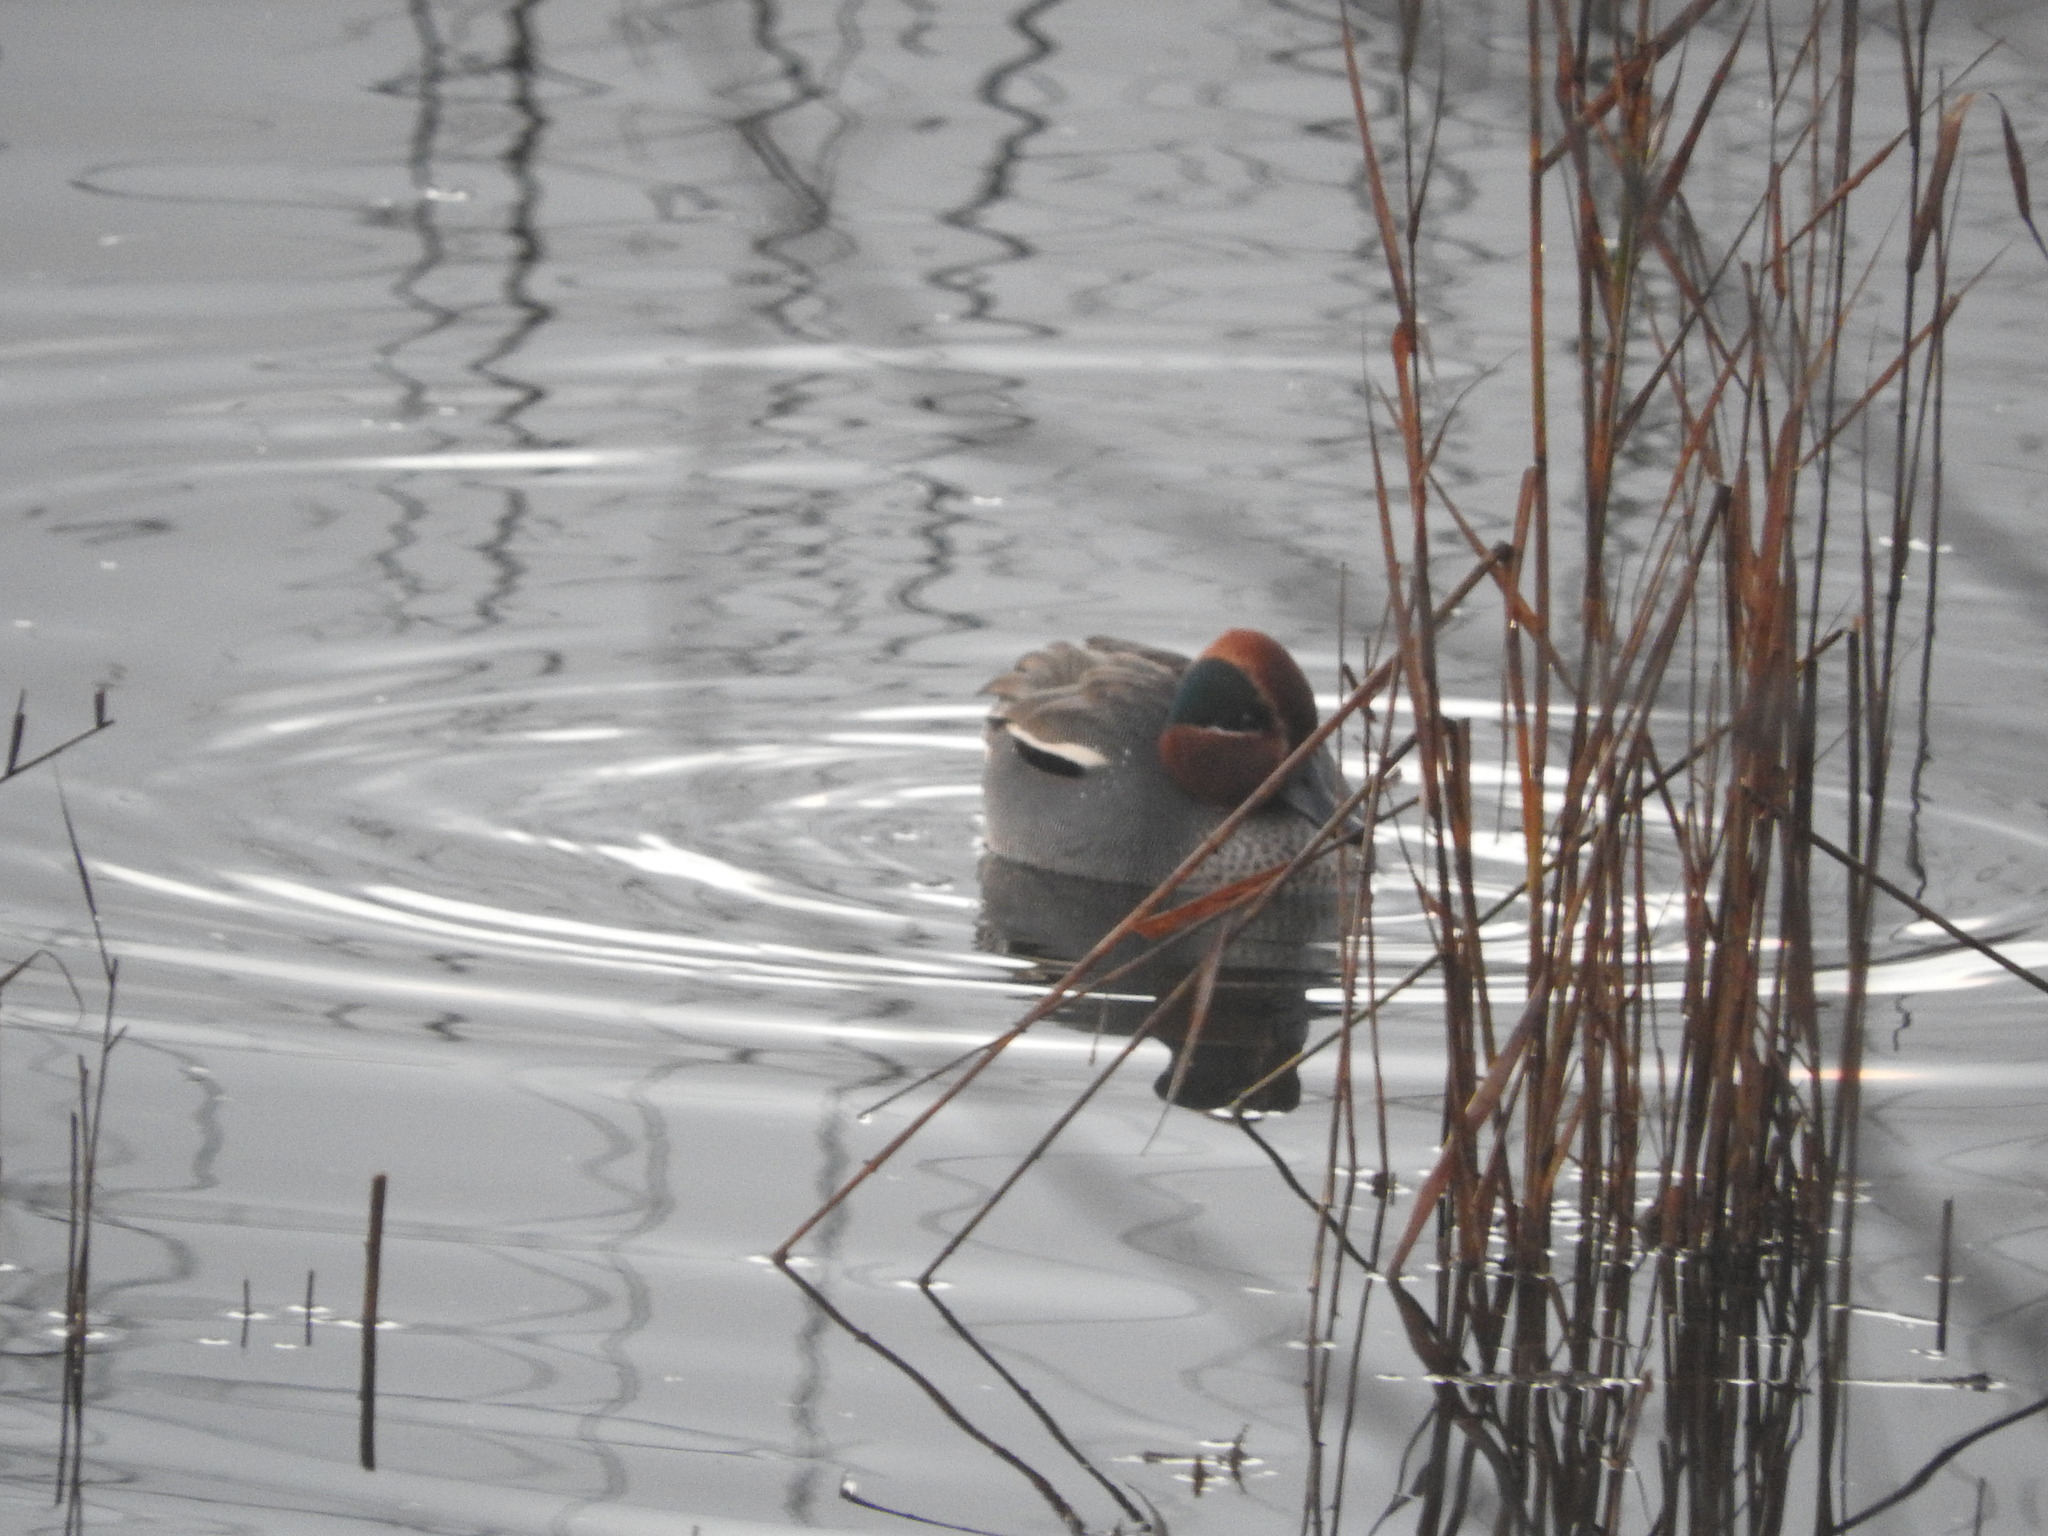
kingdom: Animalia
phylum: Chordata
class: Aves
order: Anseriformes
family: Anatidae
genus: Anas
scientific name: Anas crecca
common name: Eurasian teal
